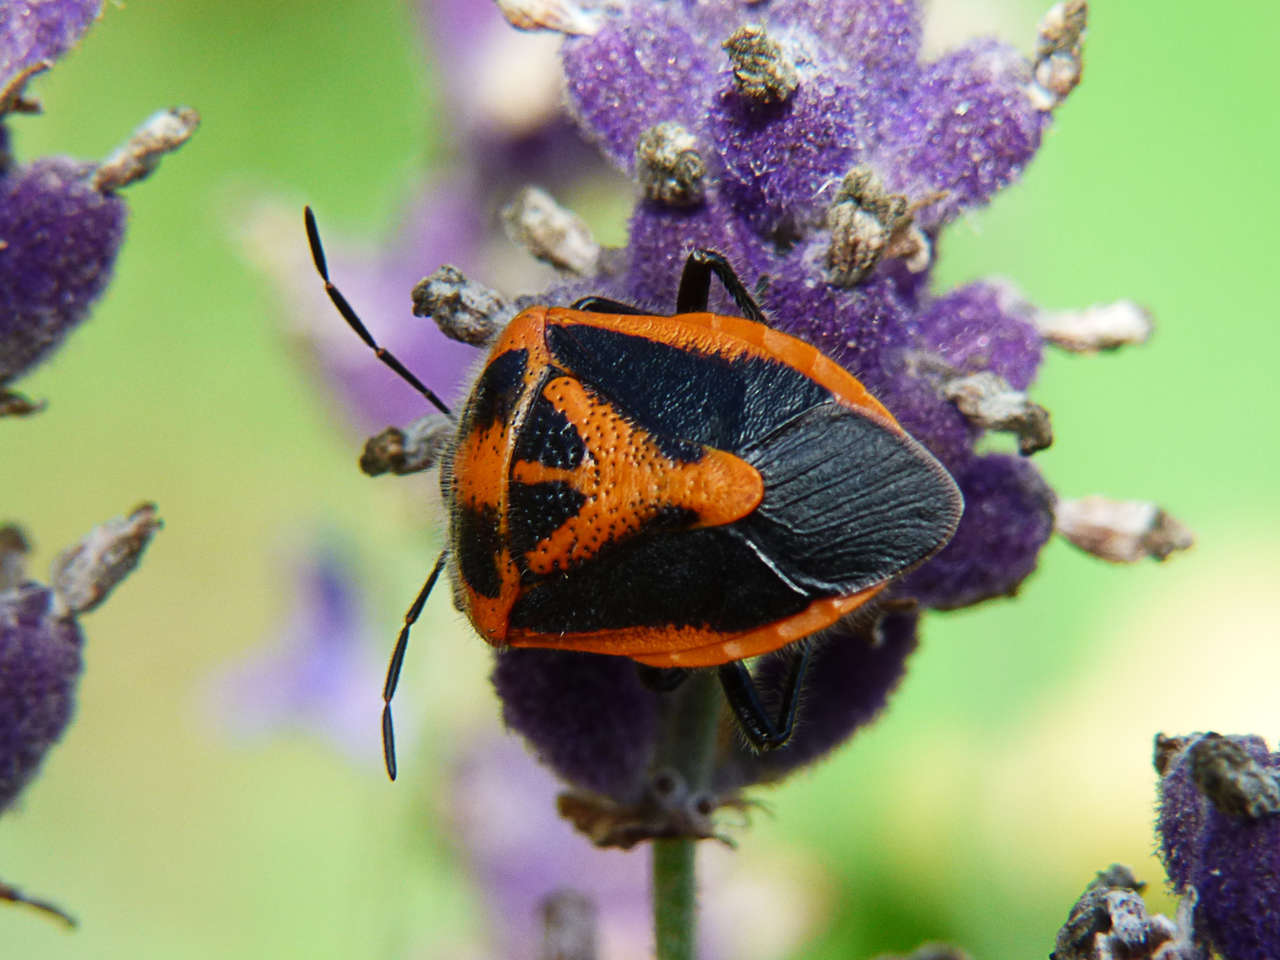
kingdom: Animalia
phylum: Arthropoda
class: Insecta
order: Hemiptera
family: Pentatomidae
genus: Agonoscelis
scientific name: Agonoscelis rutila
